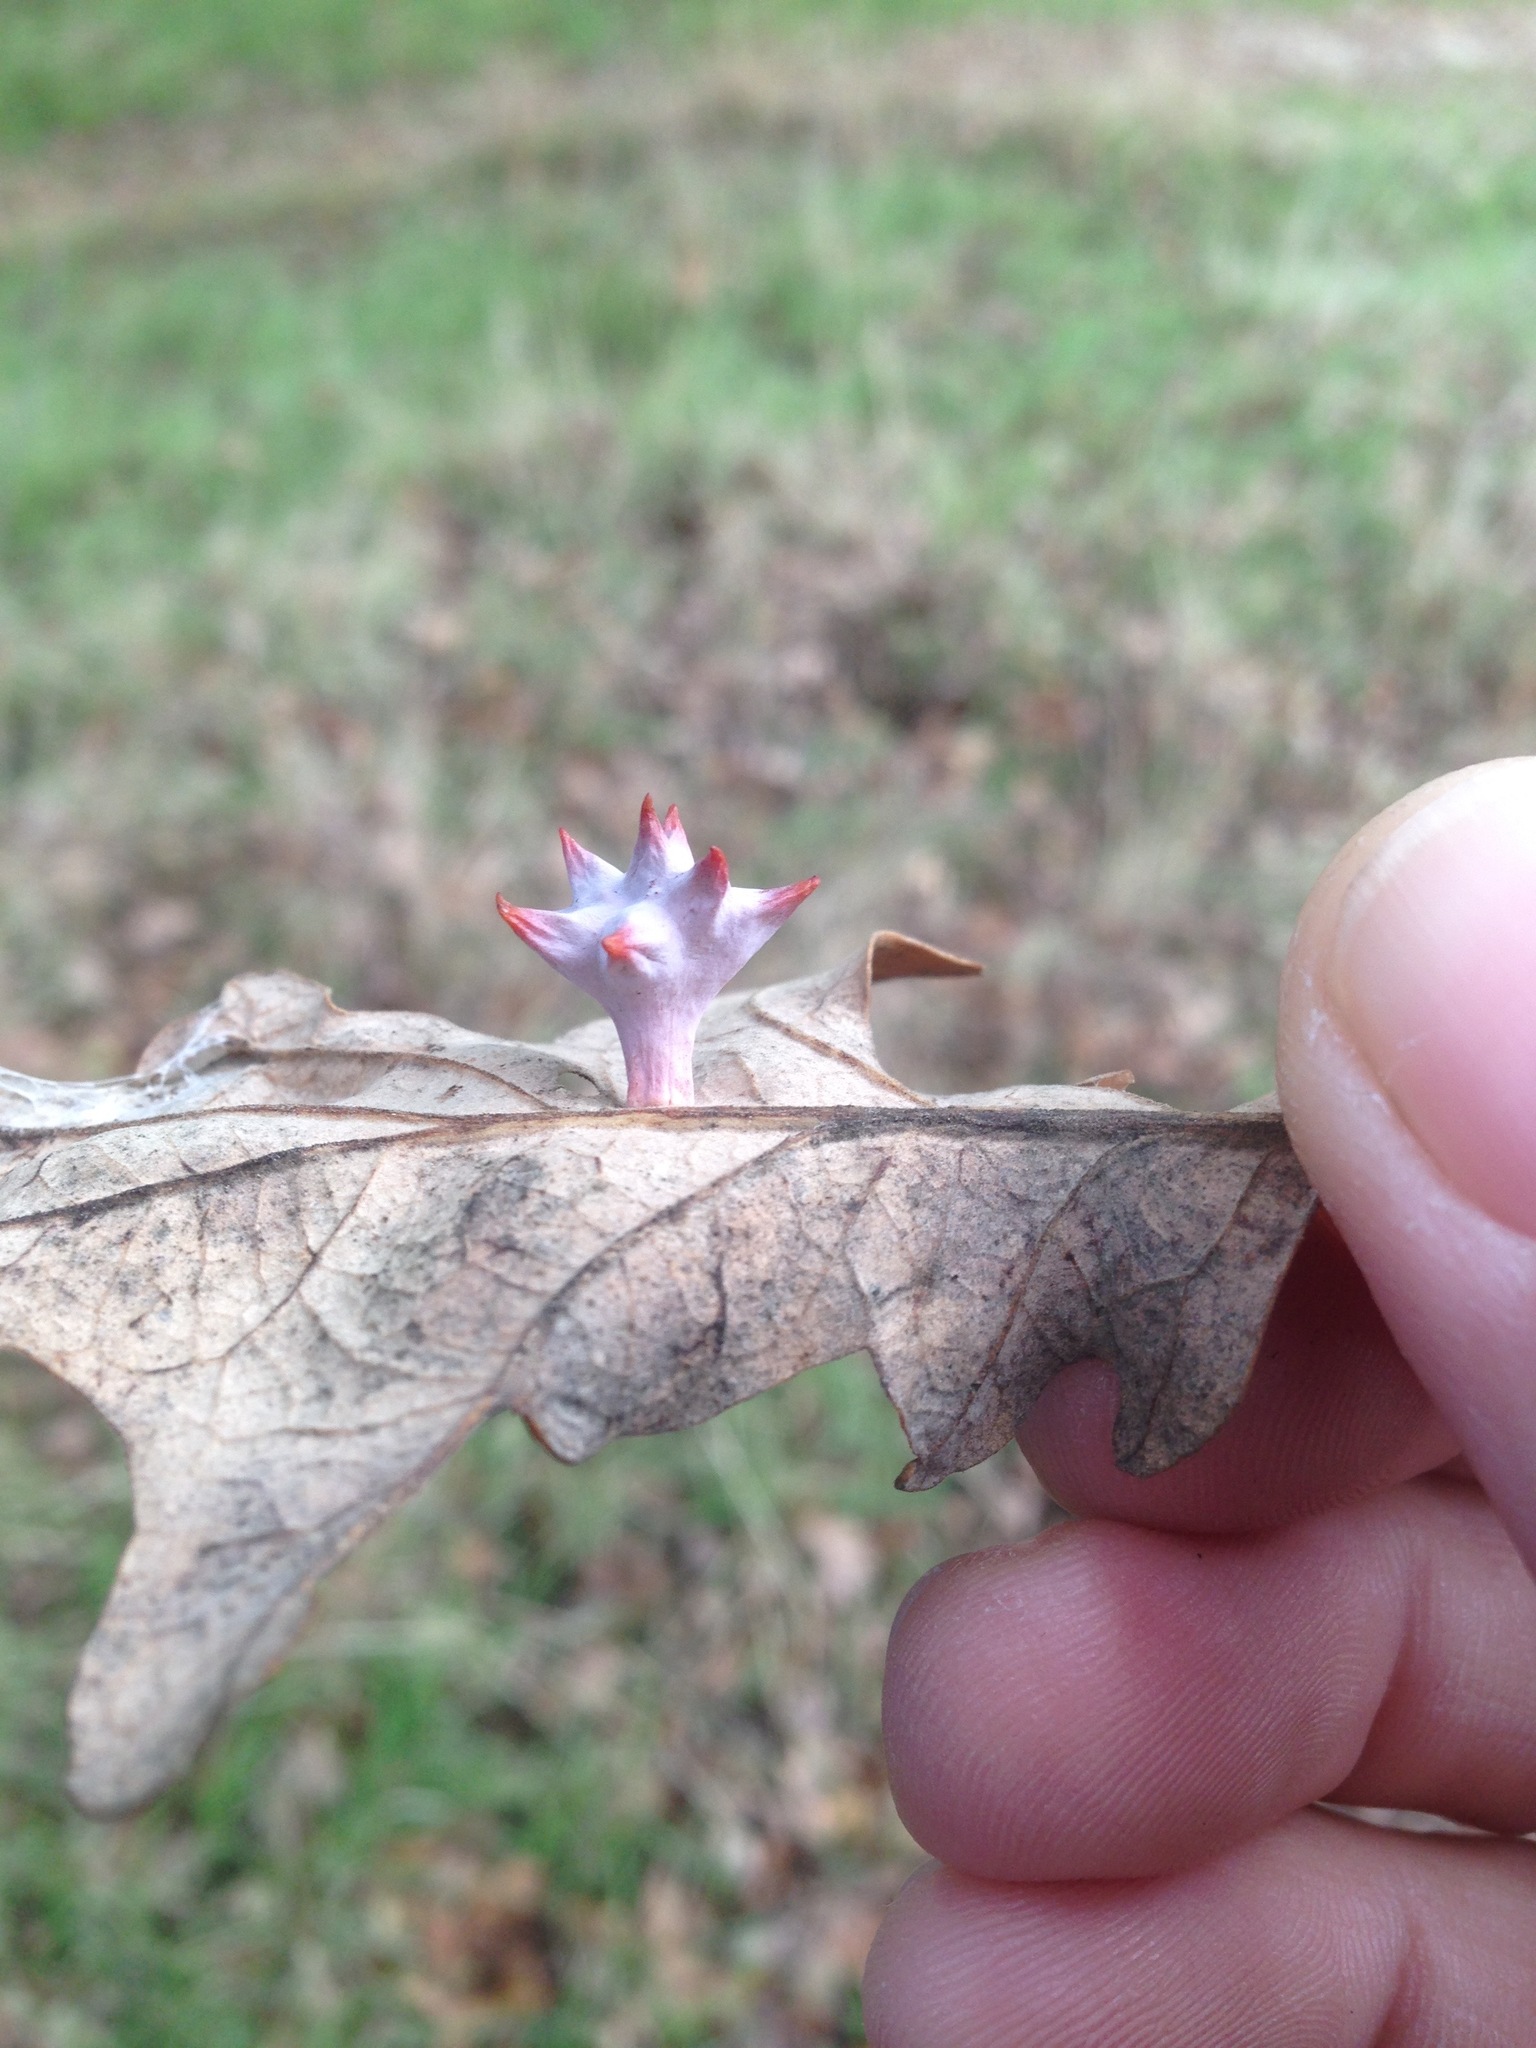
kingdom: Animalia
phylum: Arthropoda
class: Insecta
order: Hymenoptera
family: Cynipidae
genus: Cynips
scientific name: Cynips douglasi
